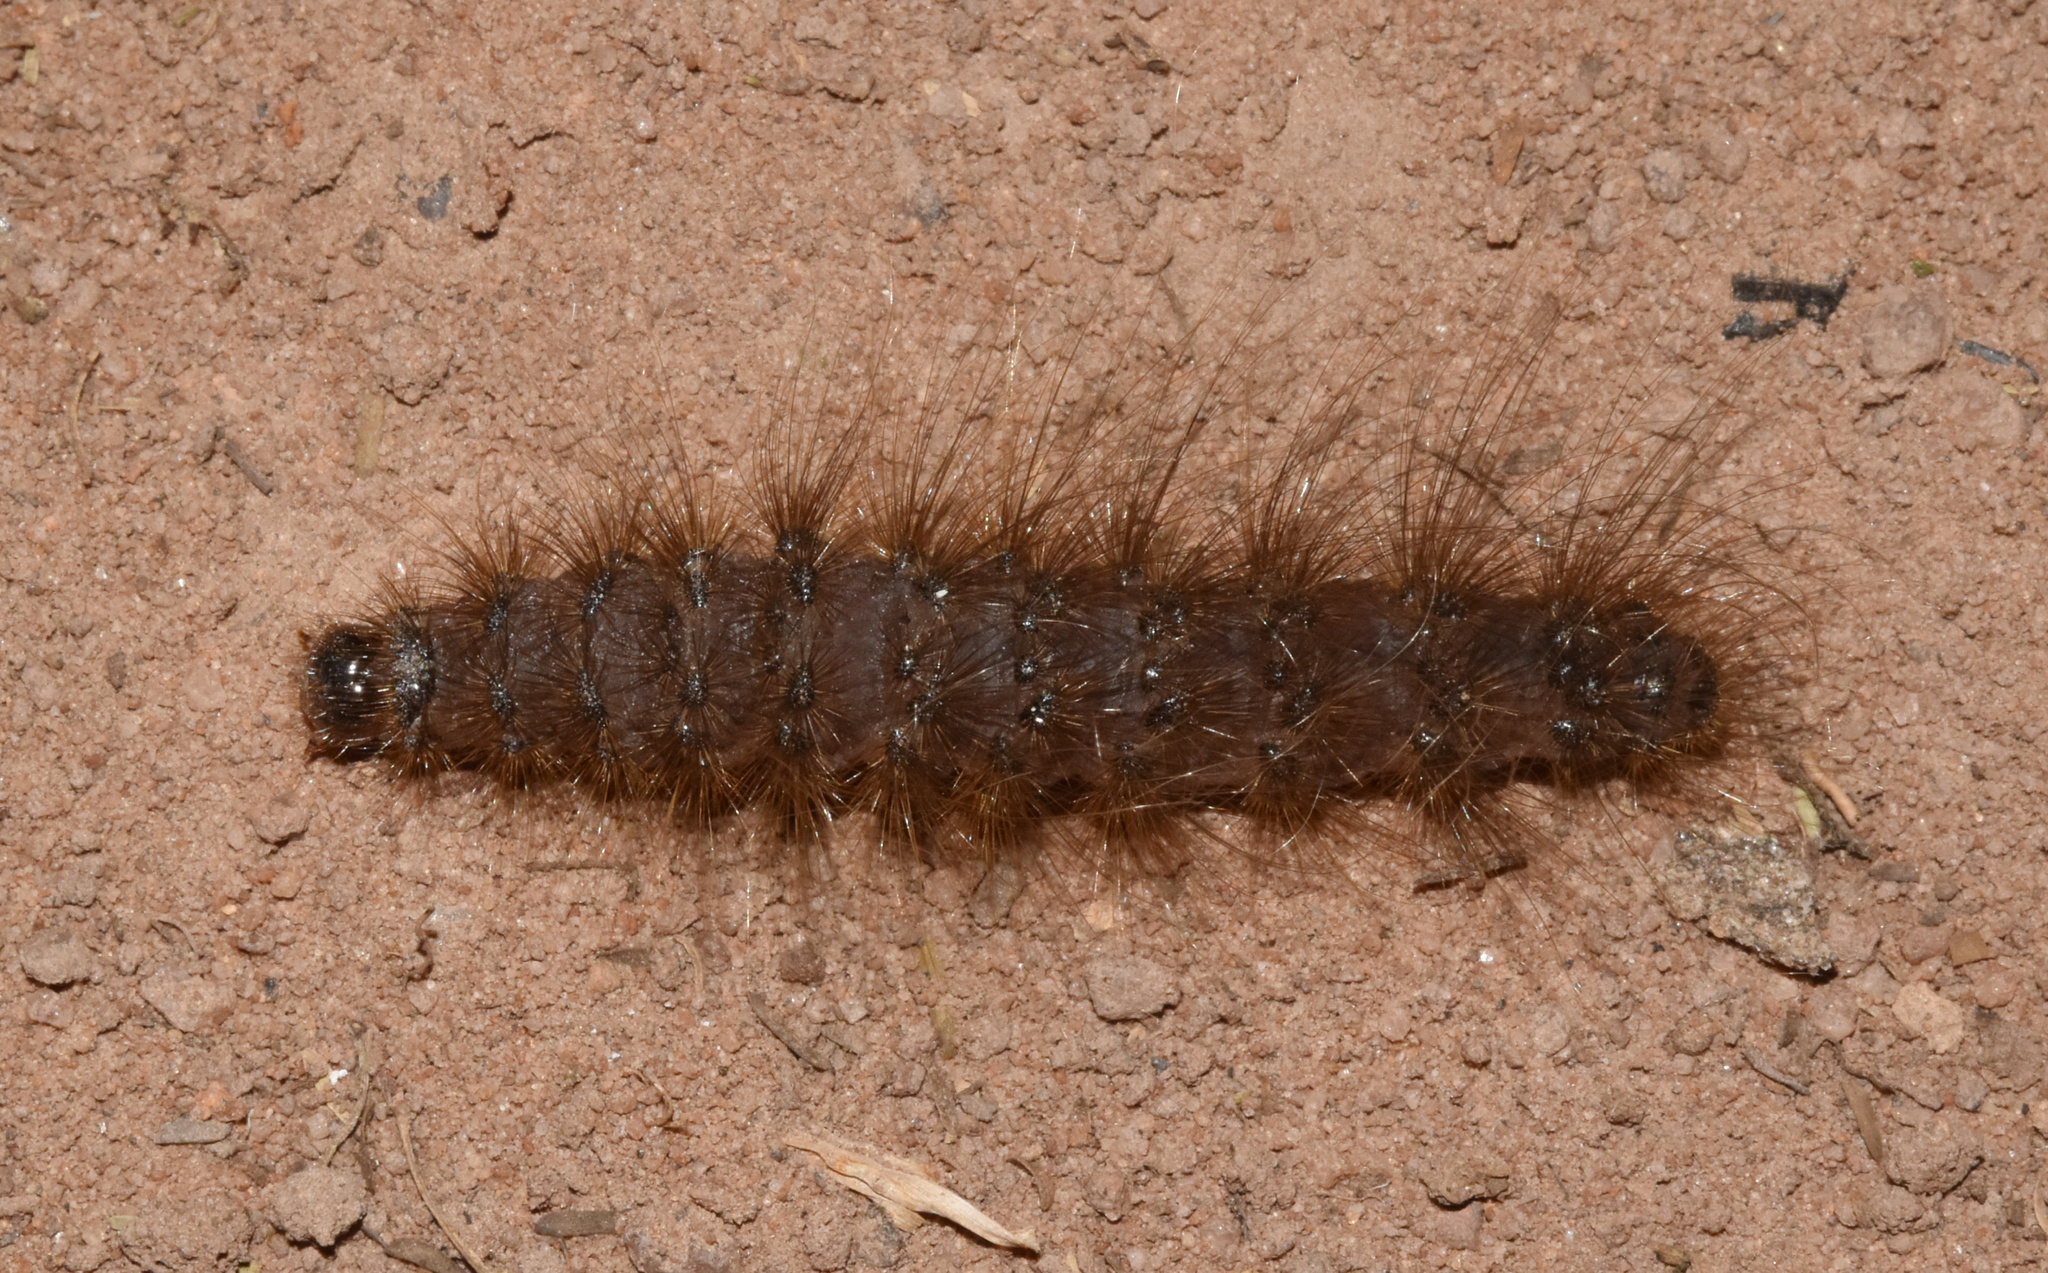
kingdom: Animalia
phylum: Arthropoda
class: Insecta
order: Lepidoptera
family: Erebidae
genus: Thyretes
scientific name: Thyretes caffra
